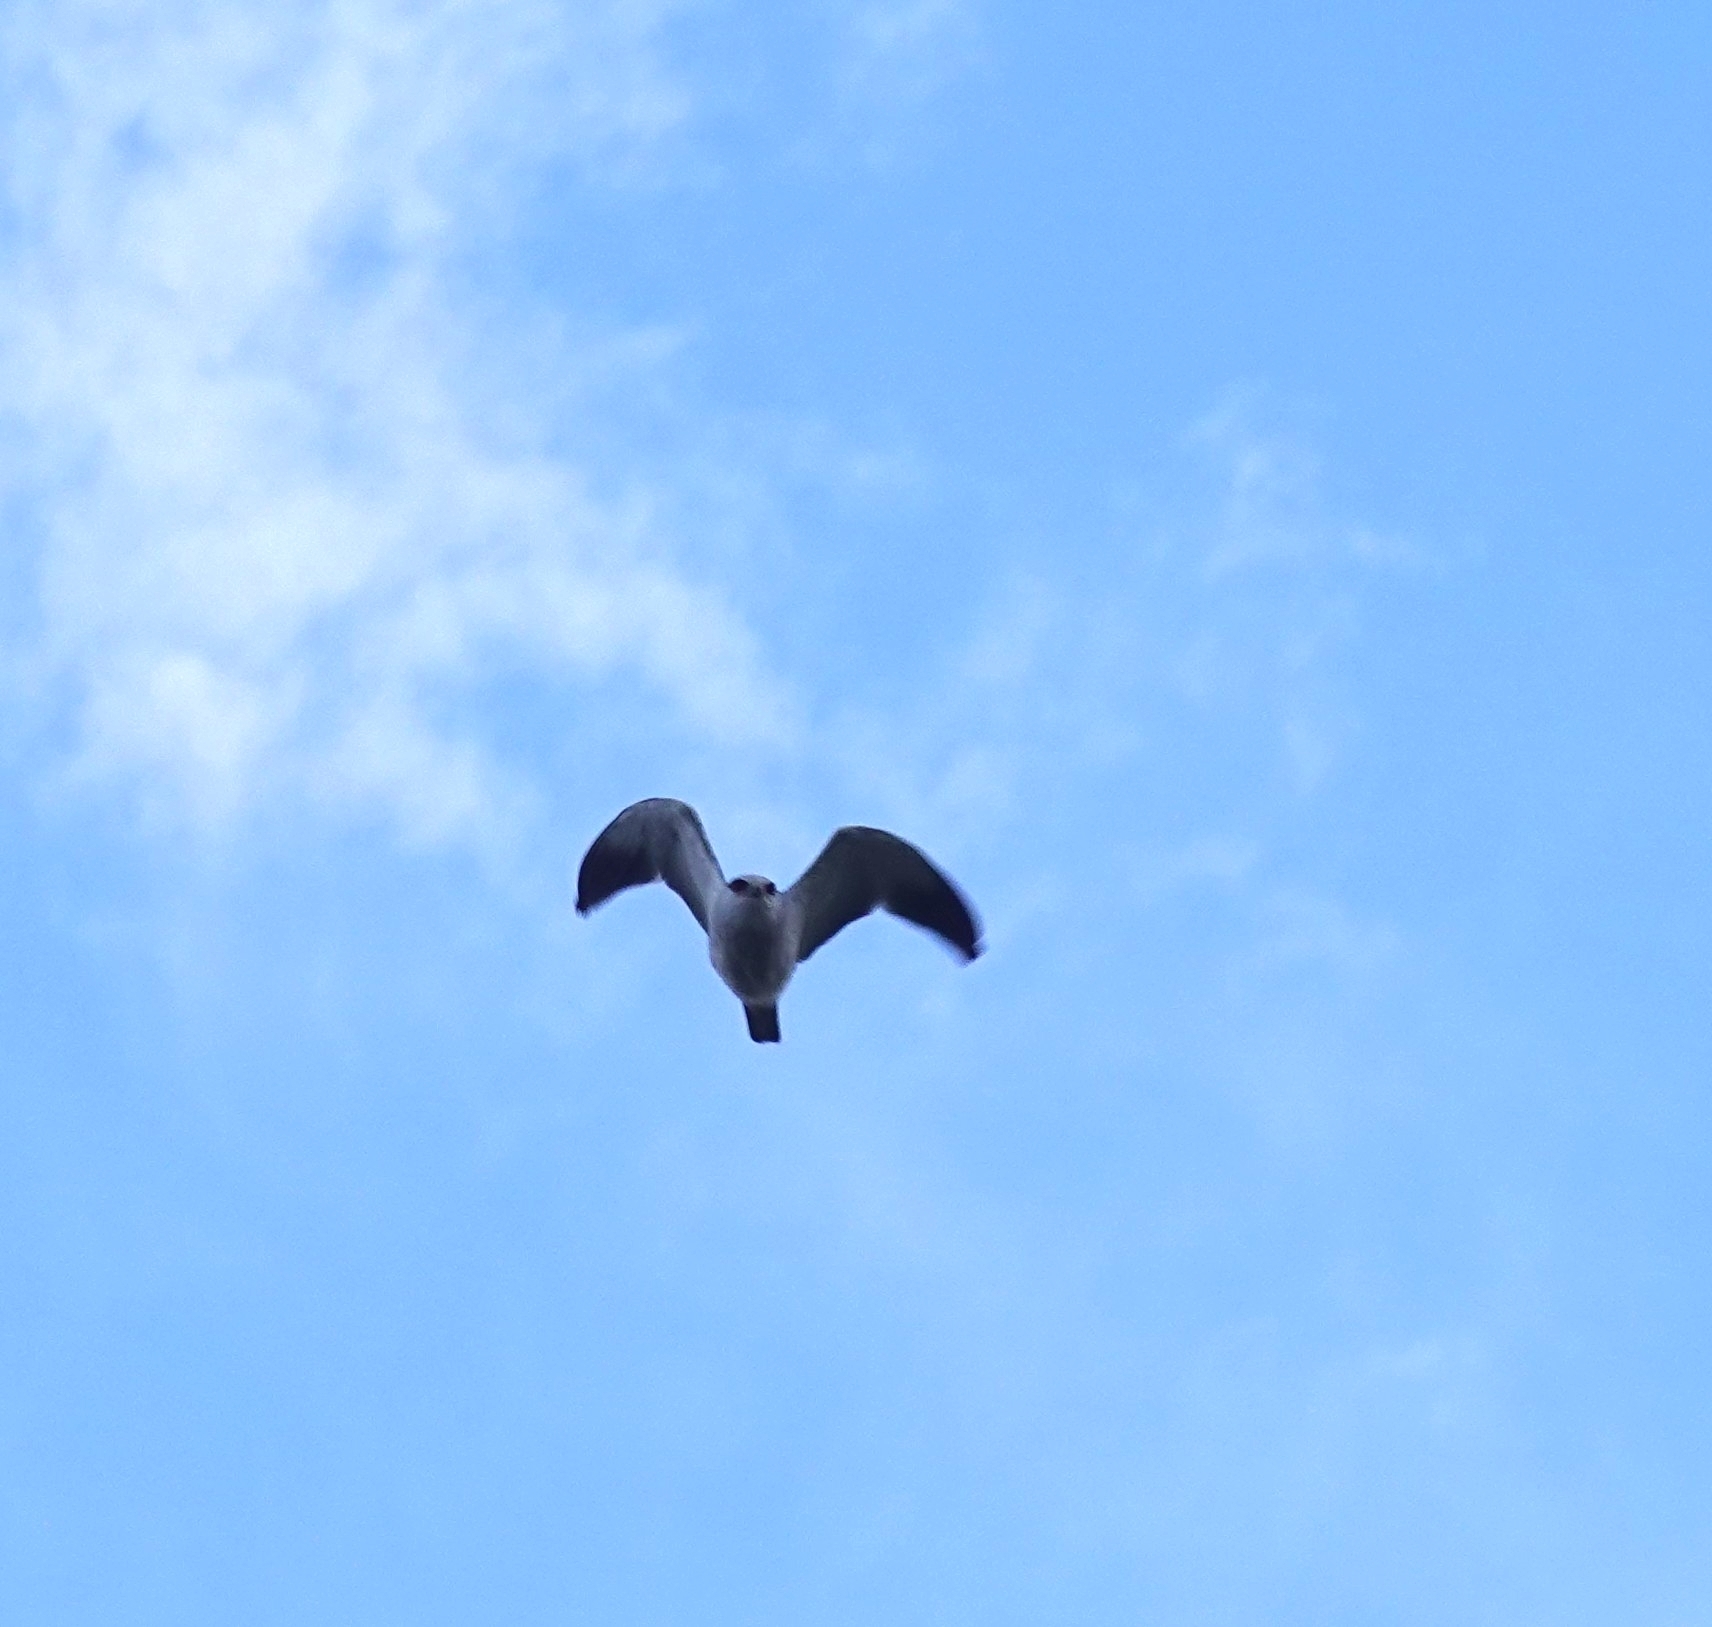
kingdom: Animalia
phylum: Chordata
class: Aves
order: Accipitriformes
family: Accipitridae
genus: Elanus
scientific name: Elanus caeruleus
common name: Black-winged kite
